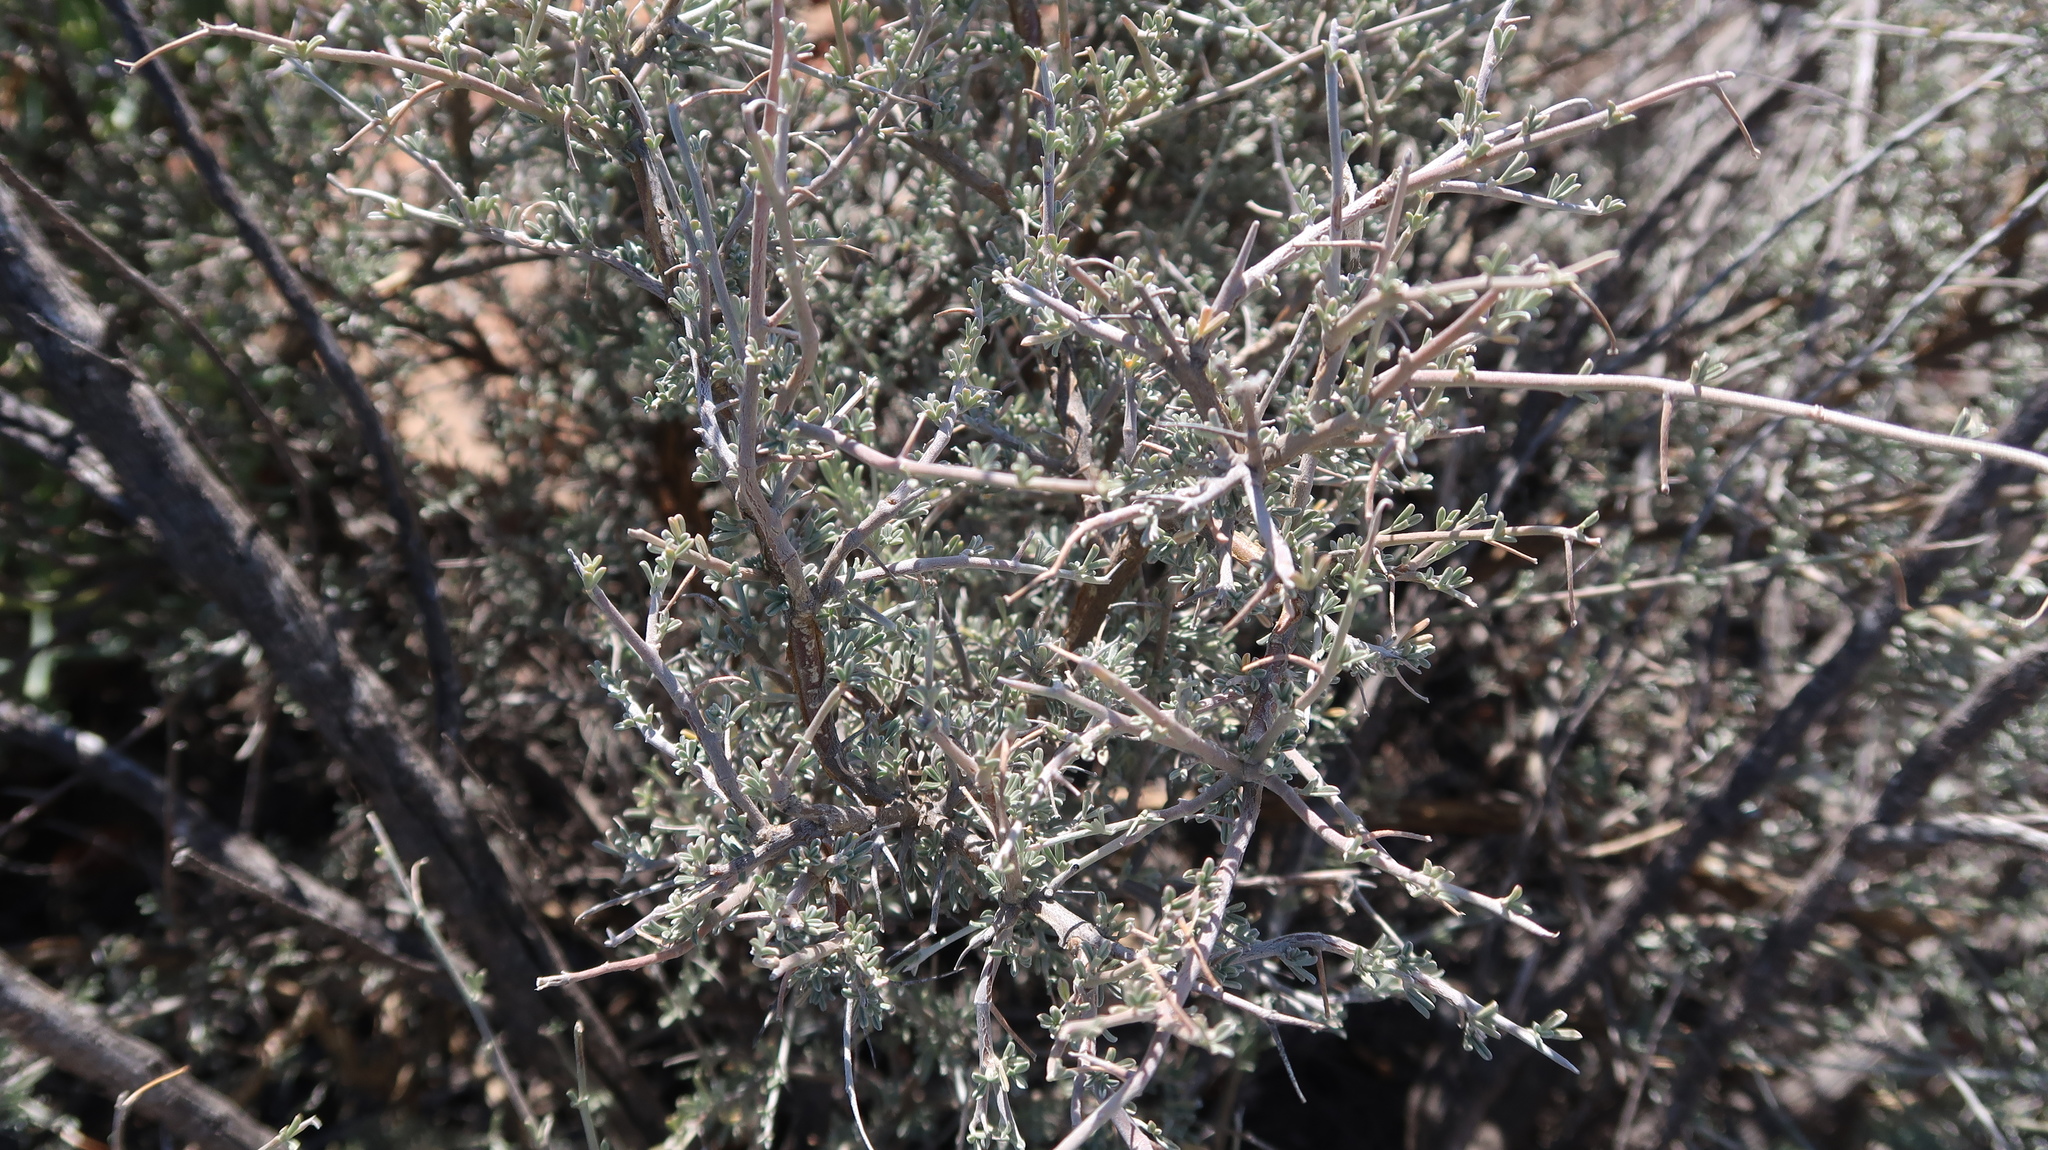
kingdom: Plantae
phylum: Tracheophyta
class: Magnoliopsida
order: Fabales
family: Fabaceae
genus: Lotononis
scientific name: Lotononis dahlgrenii
